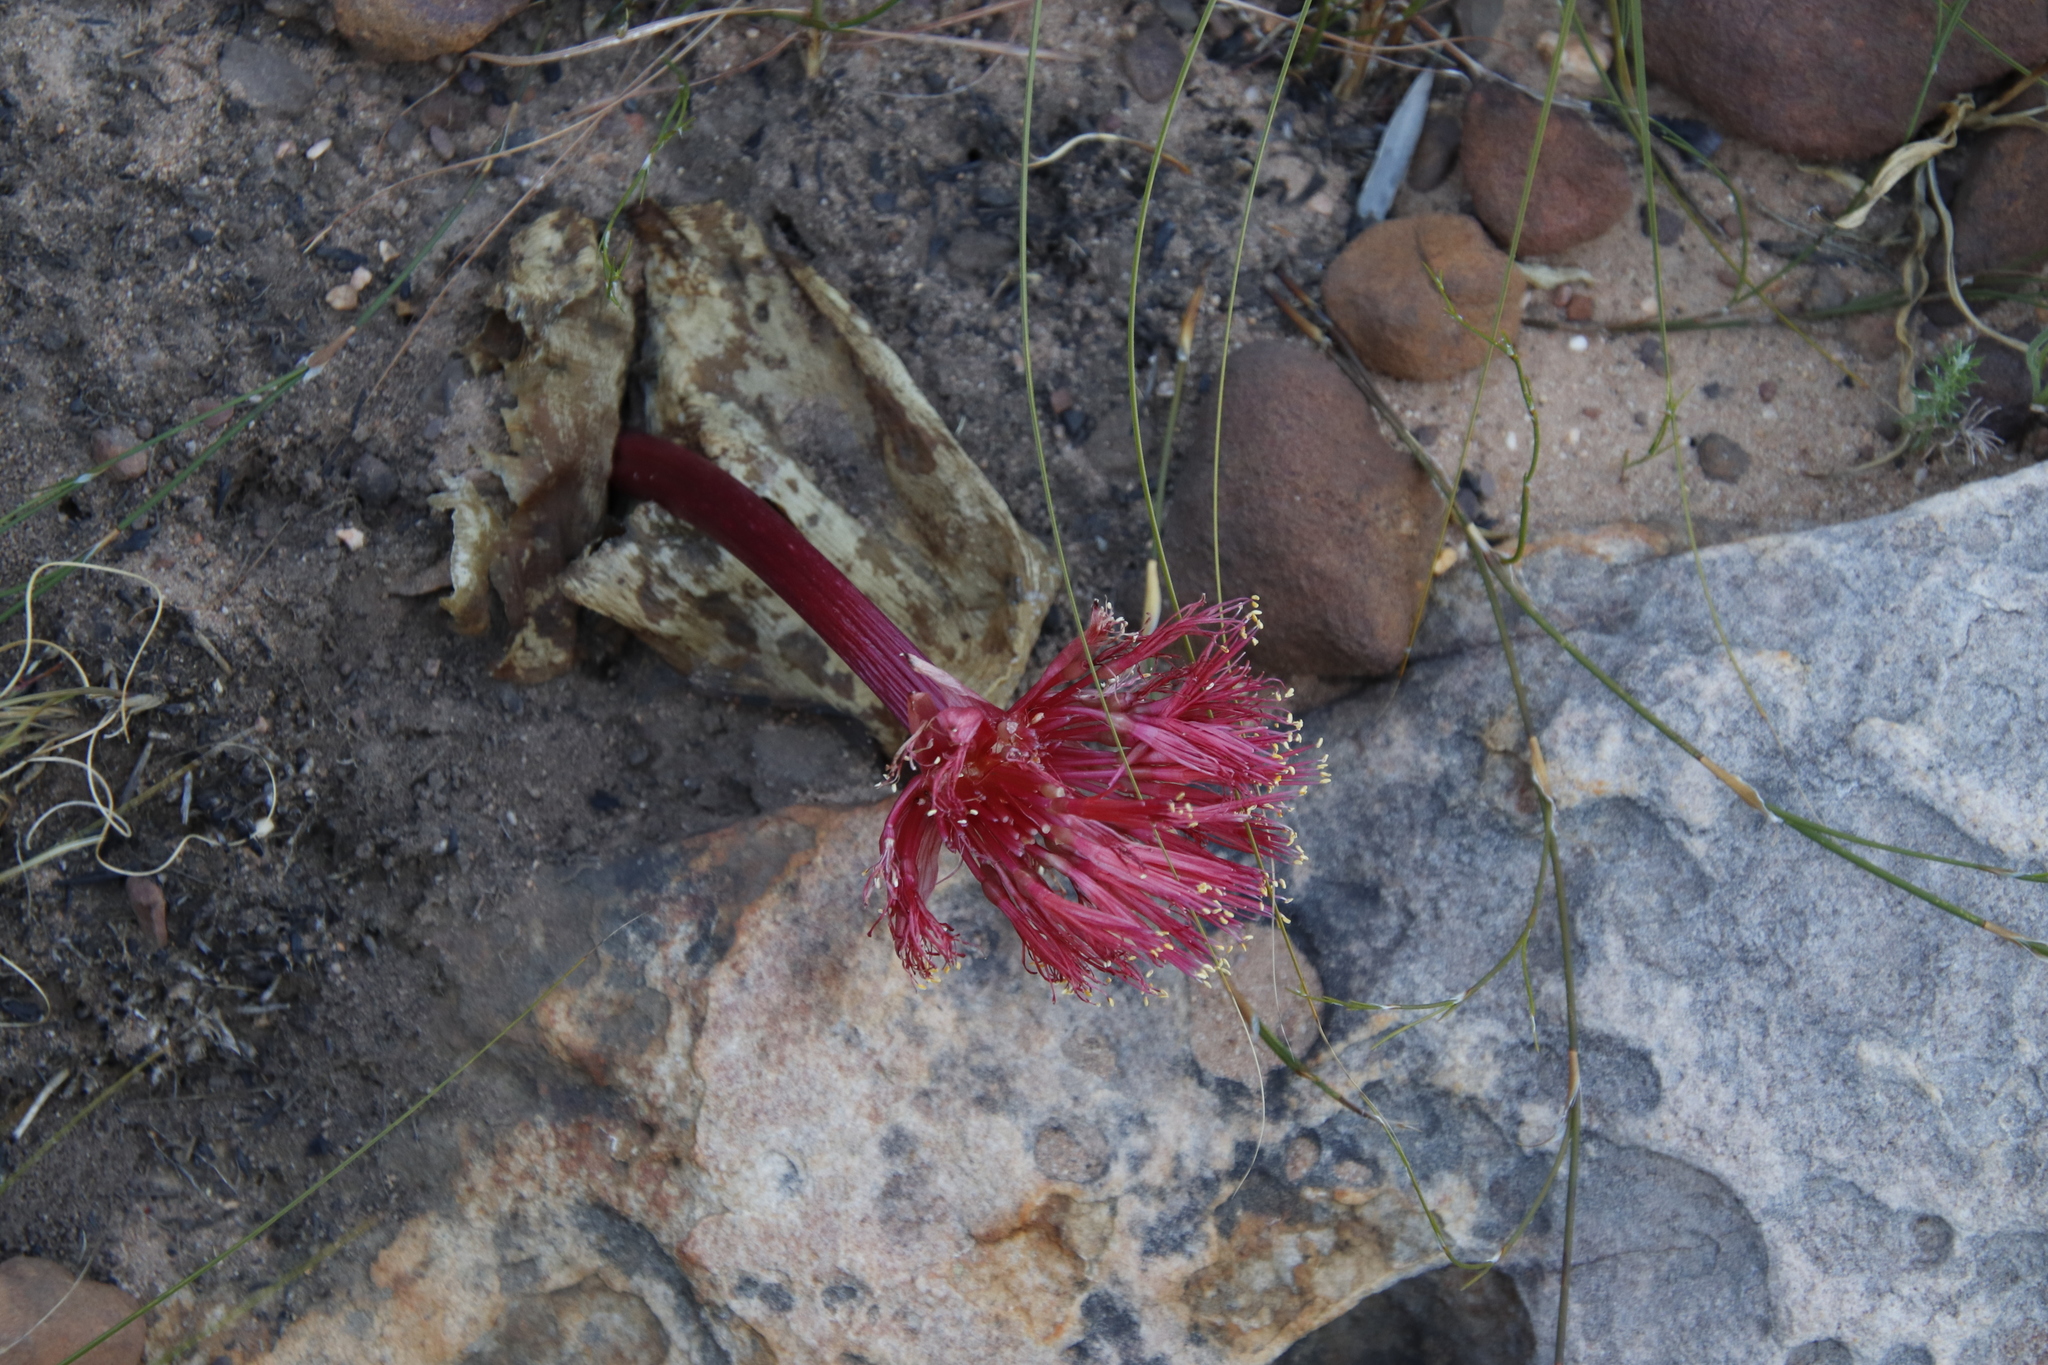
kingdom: Plantae
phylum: Tracheophyta
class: Liliopsida
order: Asparagales
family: Amaryllidaceae
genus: Haemanthus
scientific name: Haemanthus sanguineus
